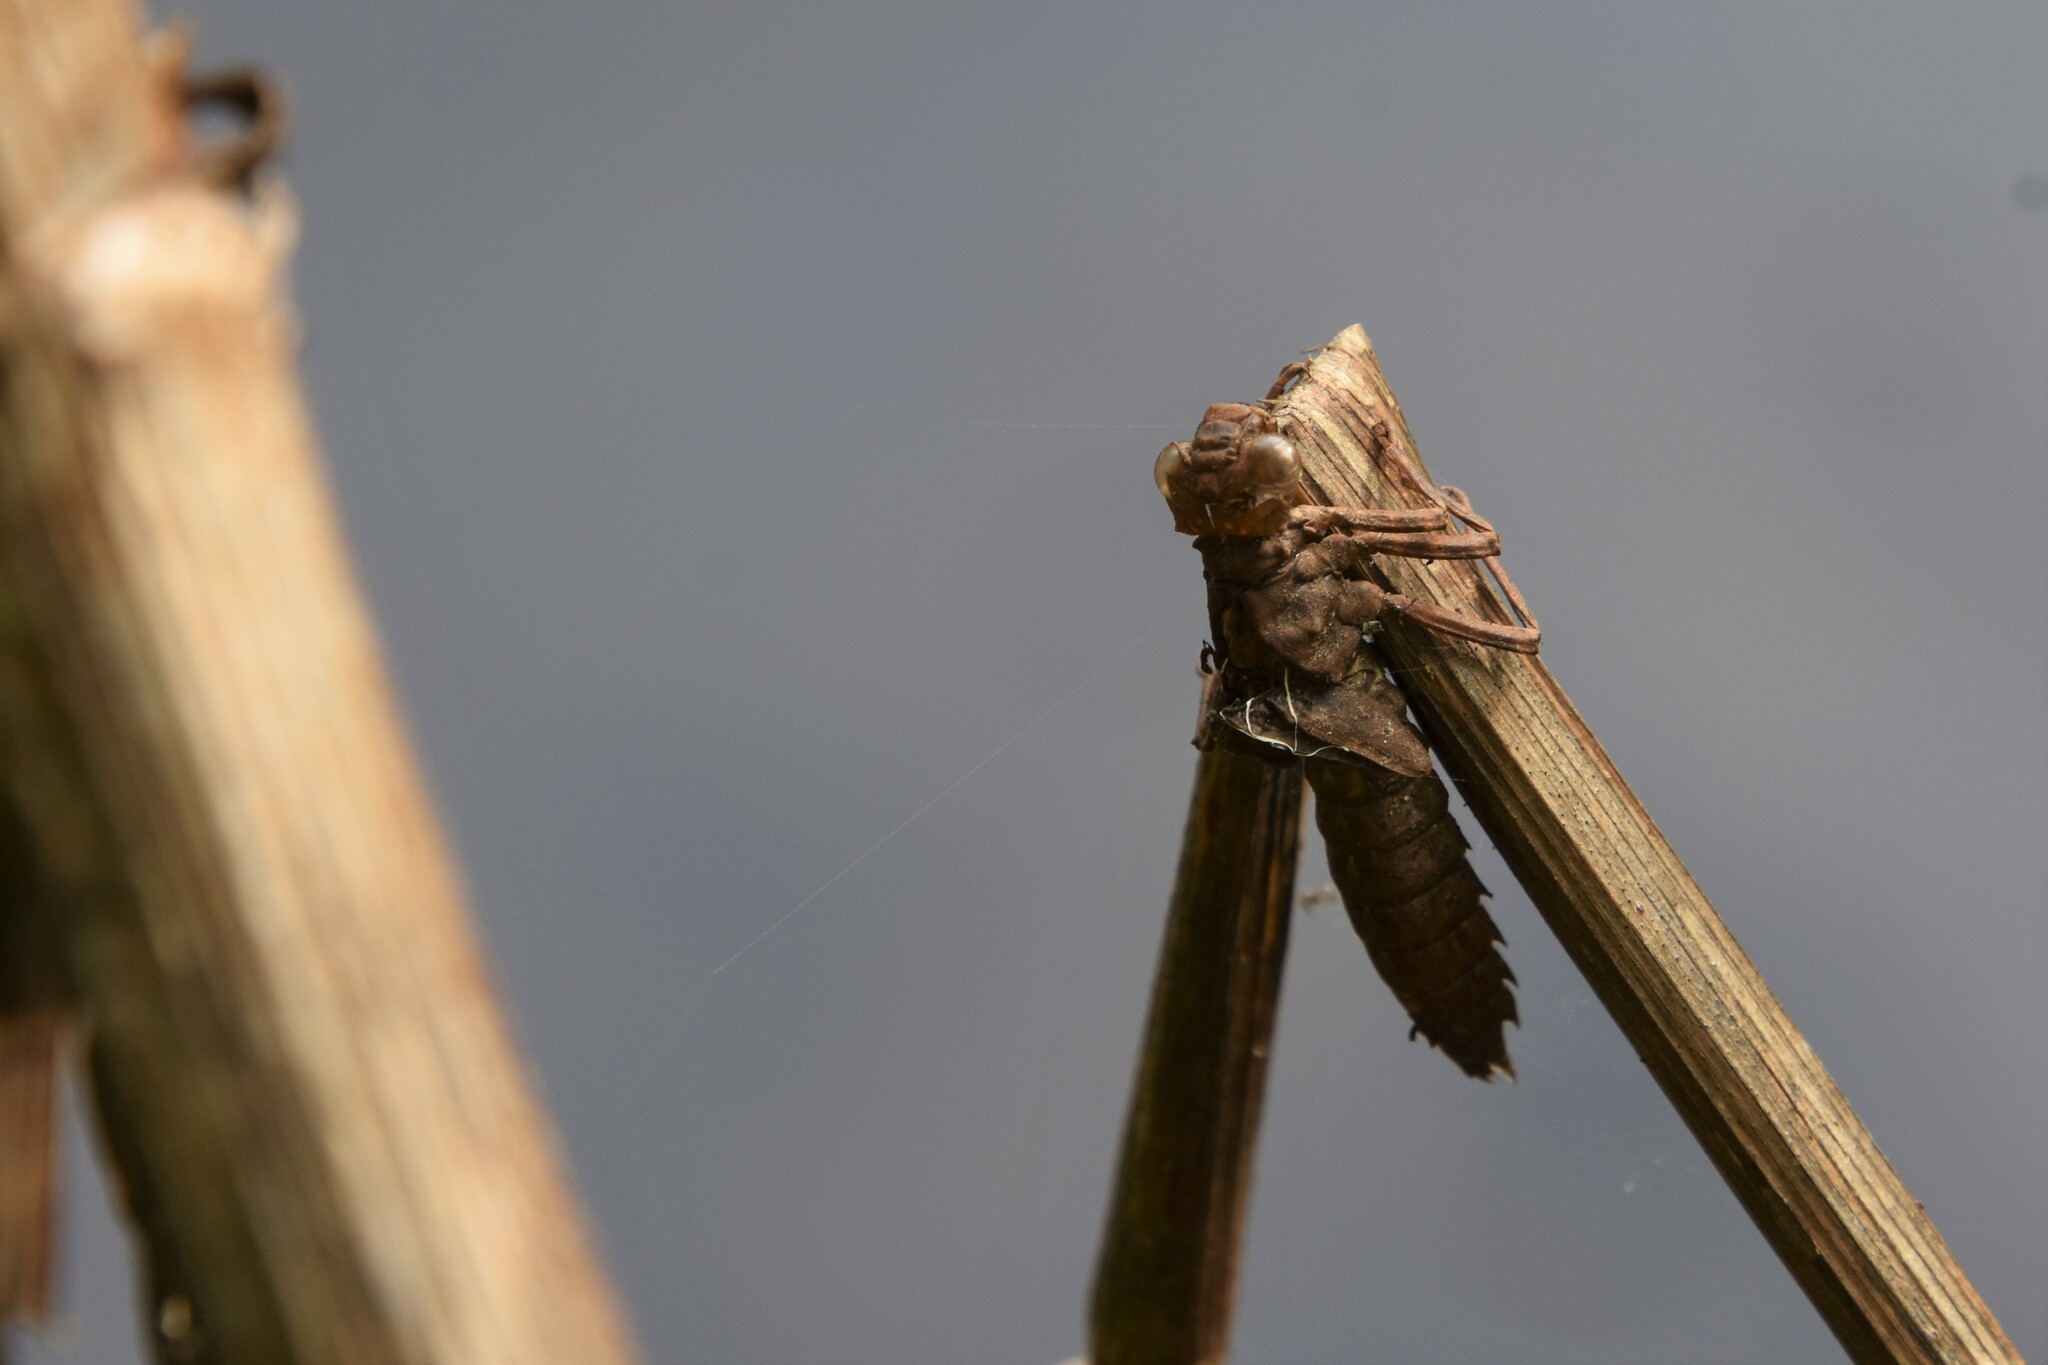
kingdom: Animalia
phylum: Arthropoda
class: Insecta
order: Odonata
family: Aeshnidae
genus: Boyeria
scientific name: Boyeria irene
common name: Western spectre
